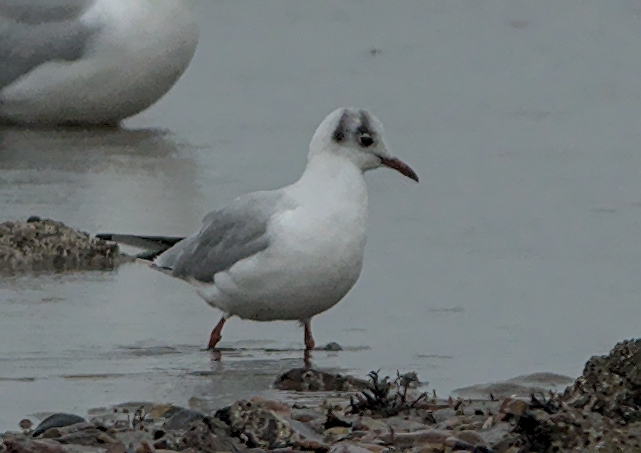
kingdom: Animalia
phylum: Chordata
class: Aves
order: Charadriiformes
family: Laridae
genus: Chroicocephalus
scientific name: Chroicocephalus ridibundus
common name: Black-headed gull
